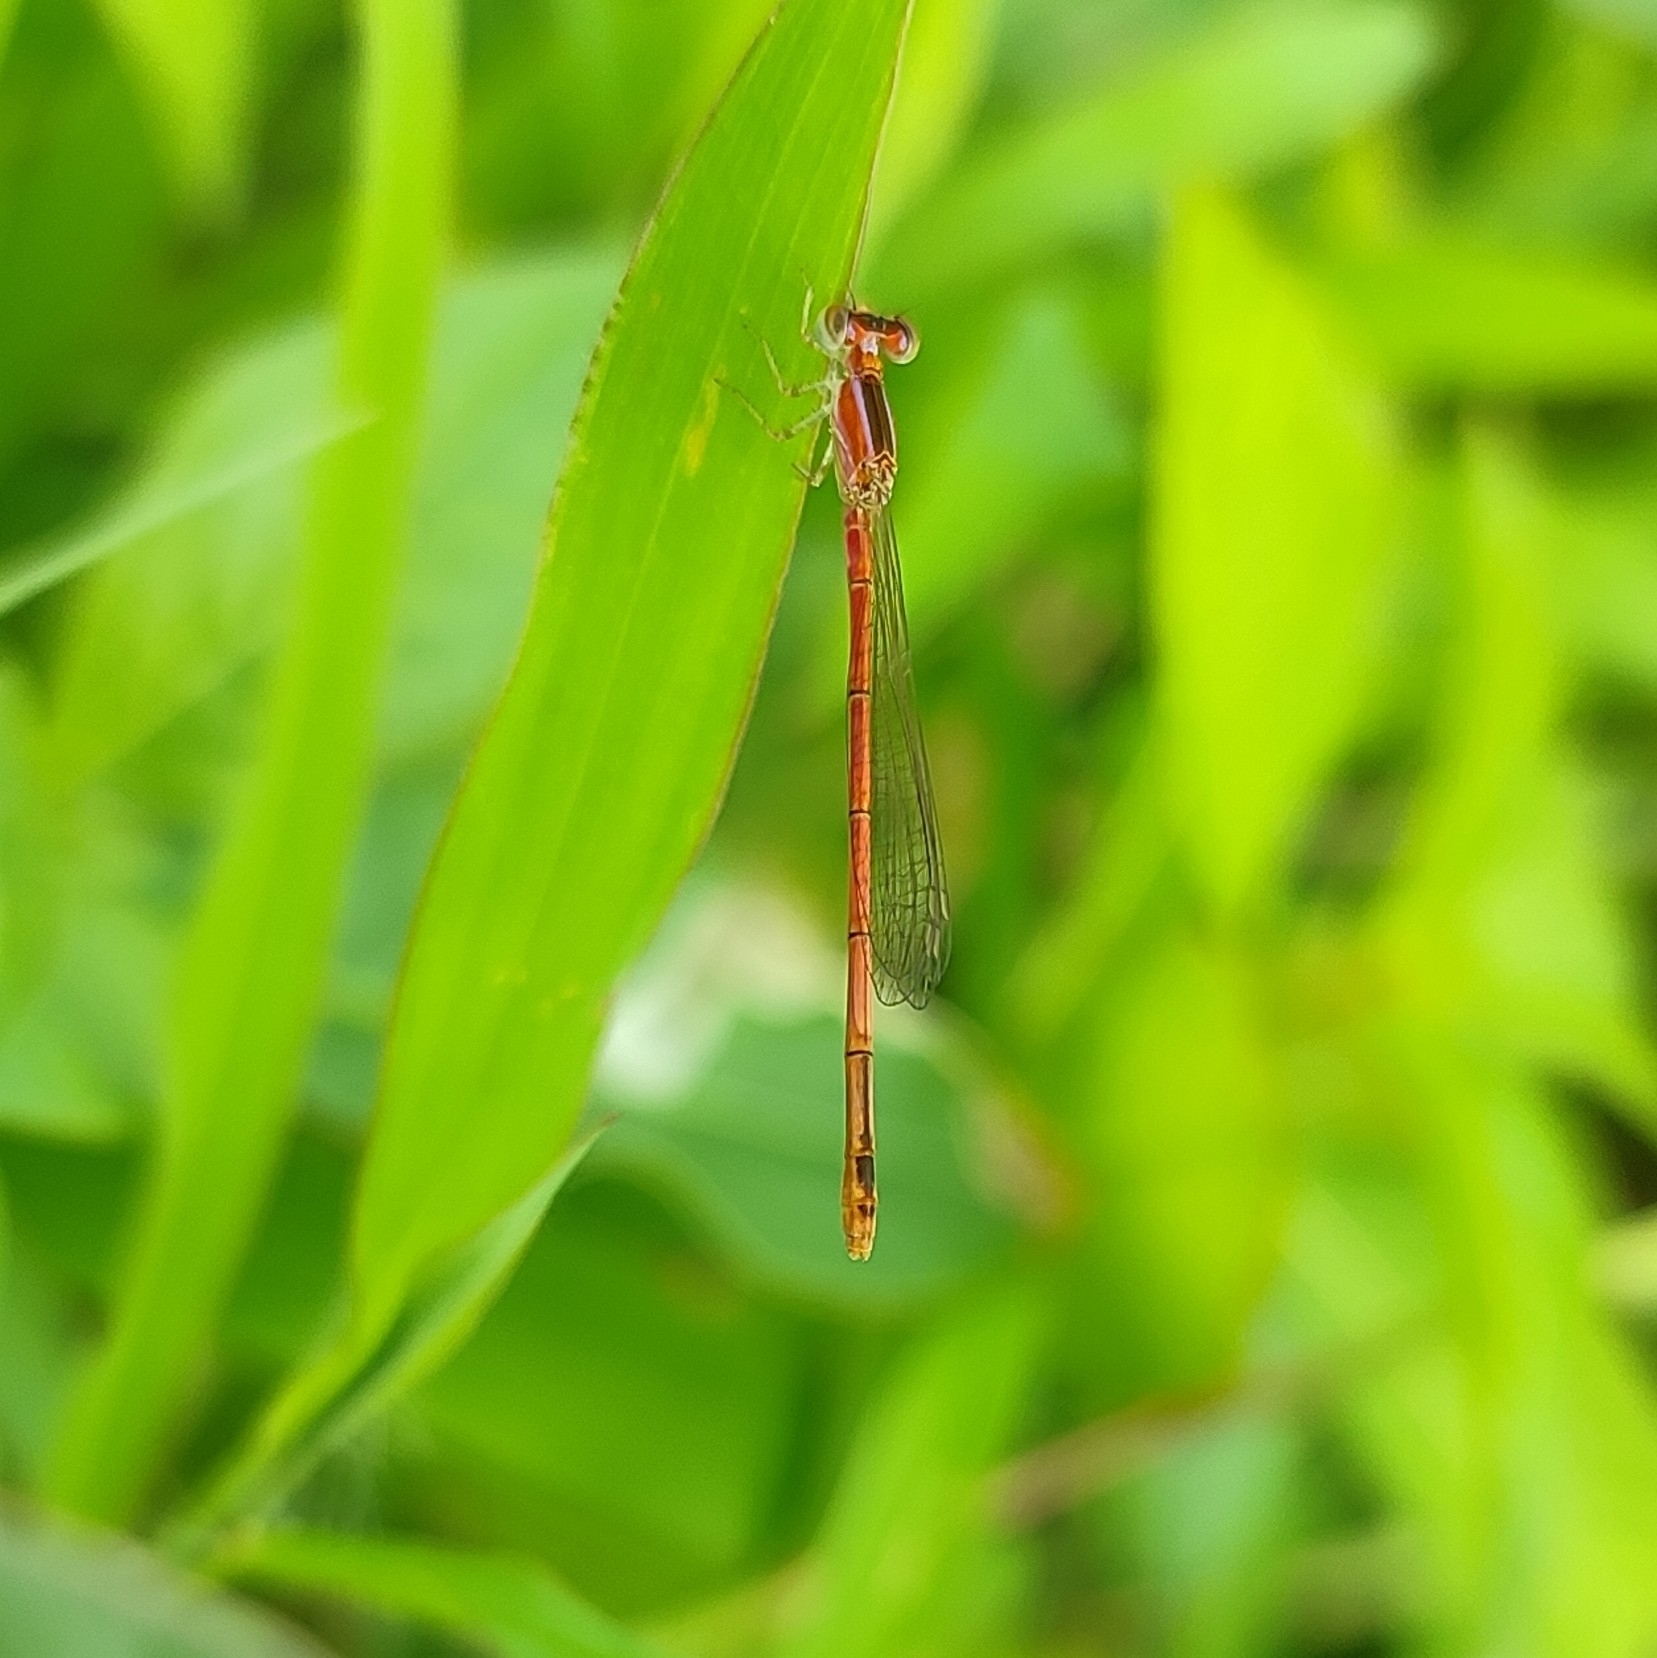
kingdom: Animalia
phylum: Arthropoda
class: Insecta
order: Odonata
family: Coenagrionidae
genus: Agriocnemis
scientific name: Agriocnemis pygmaea
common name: Pygmy wisp
